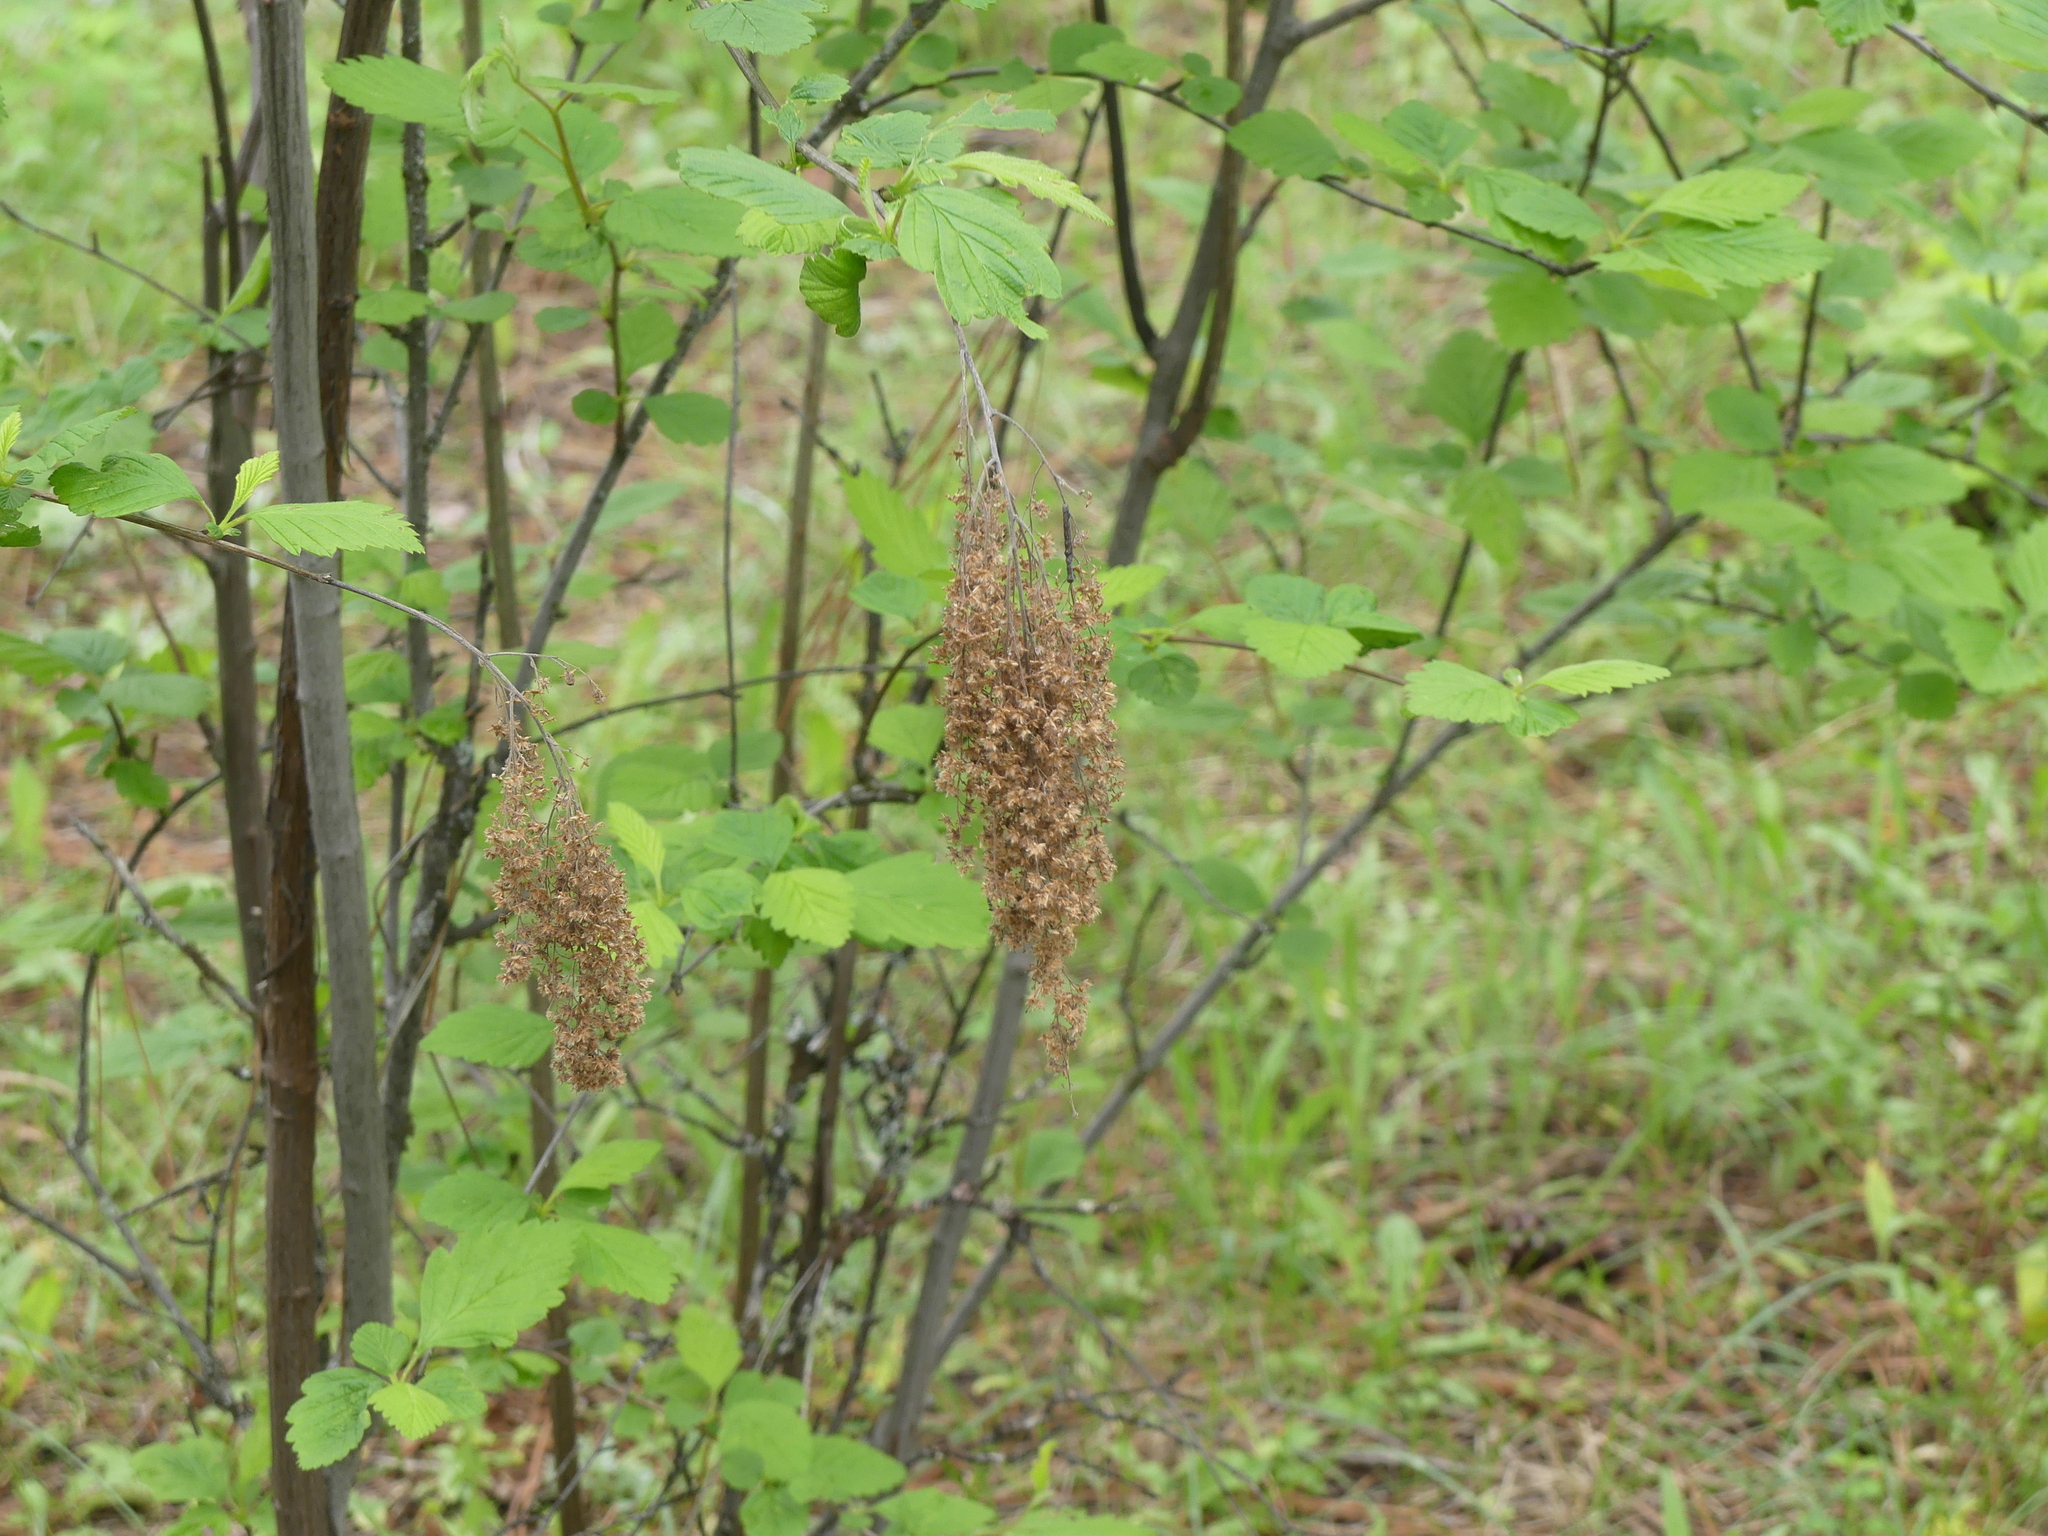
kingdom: Plantae
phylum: Tracheophyta
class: Magnoliopsida
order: Rosales
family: Rosaceae
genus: Holodiscus
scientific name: Holodiscus discolor
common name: Oceanspray
